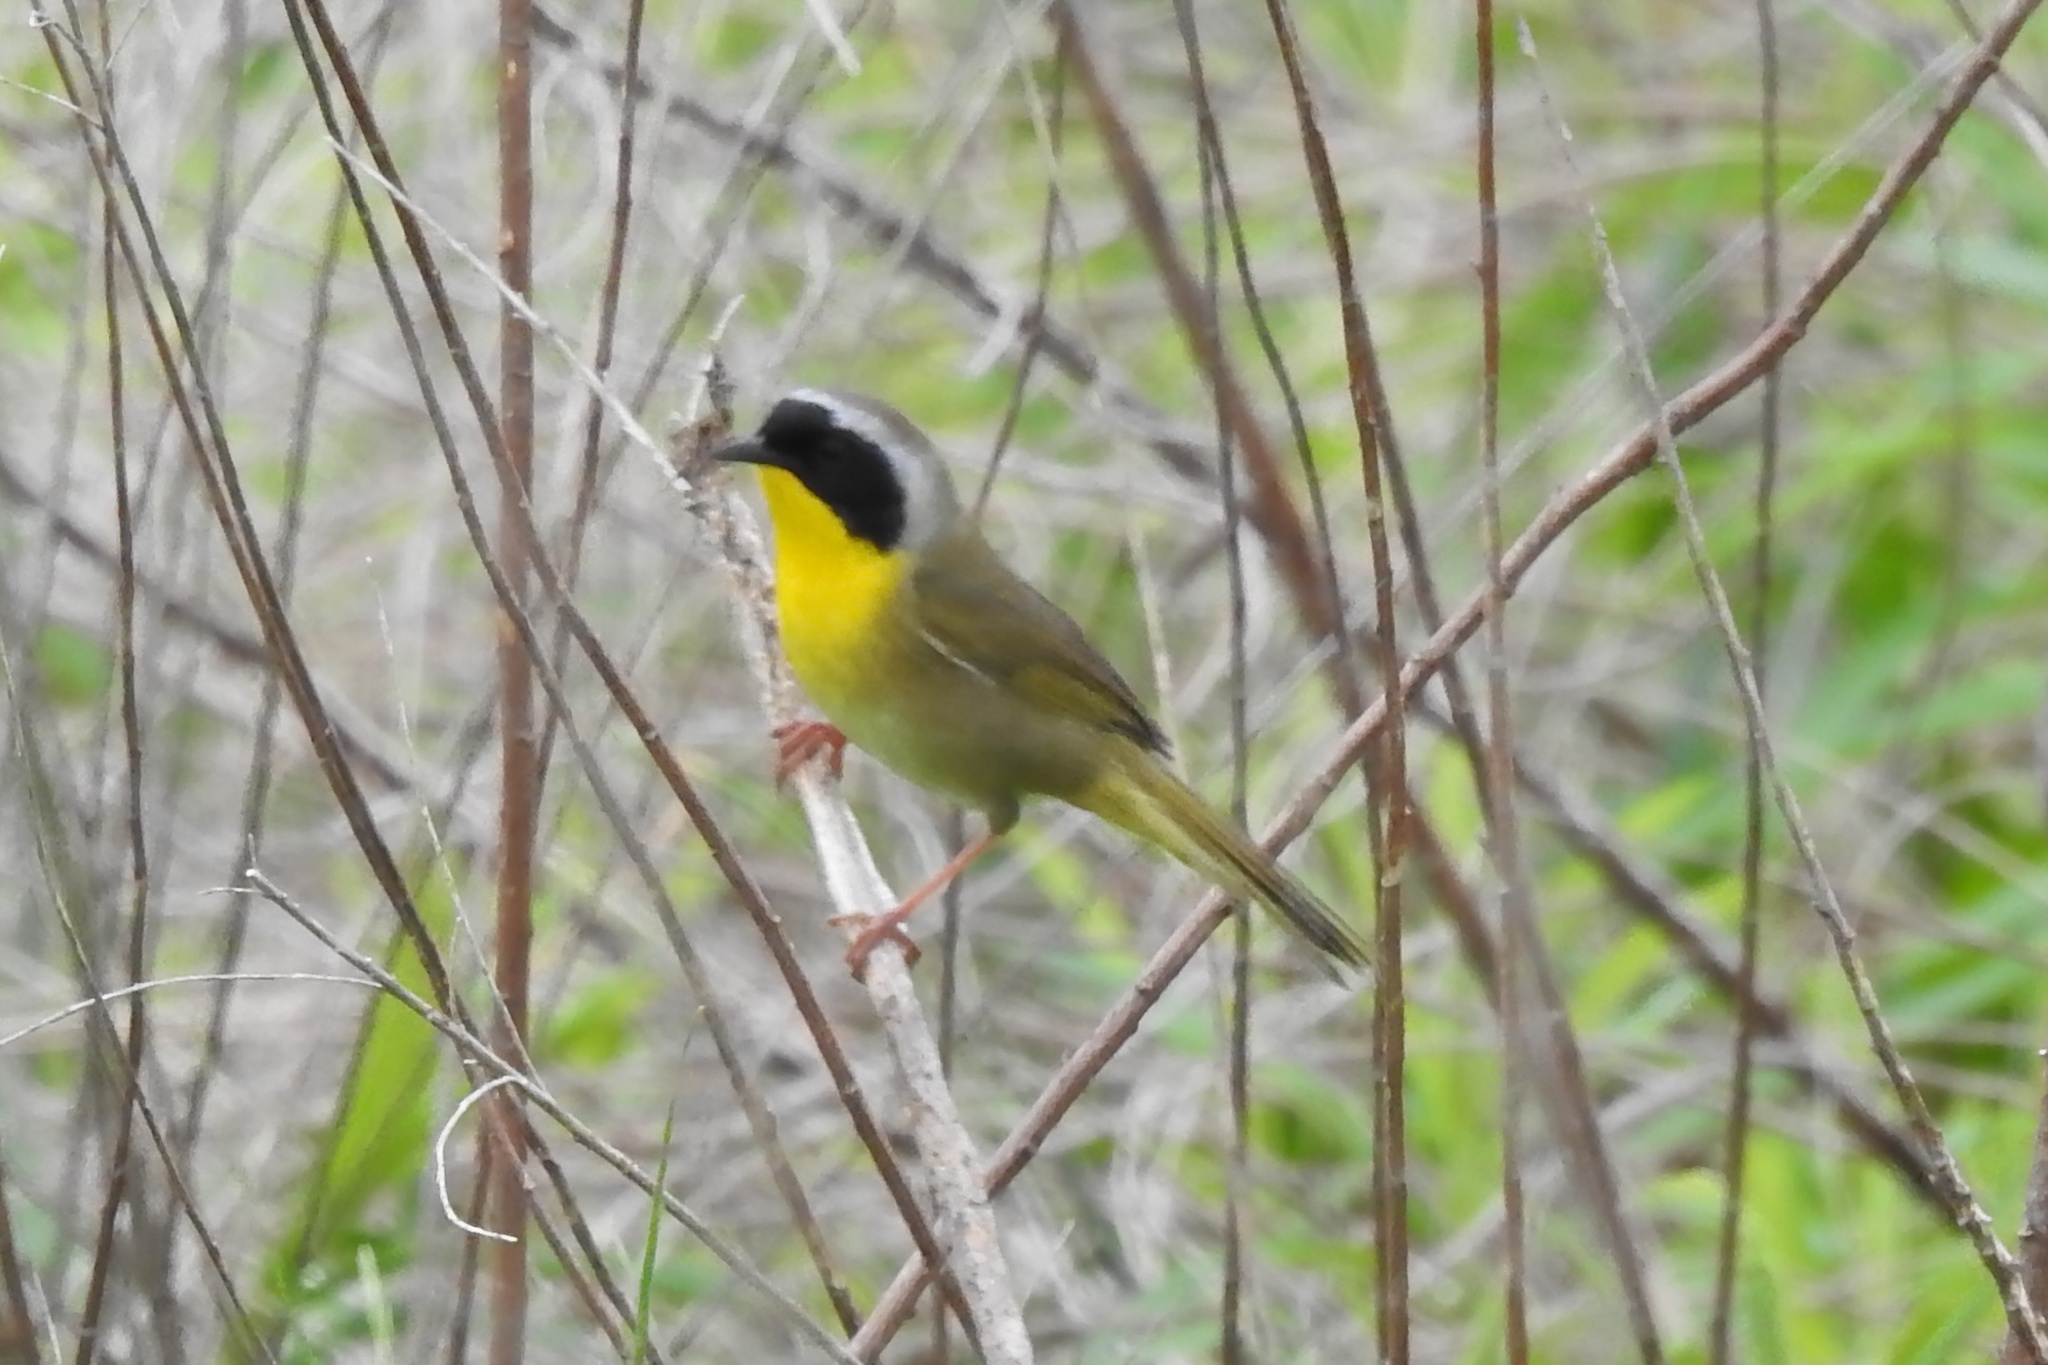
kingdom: Animalia
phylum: Chordata
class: Aves
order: Passeriformes
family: Parulidae
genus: Geothlypis
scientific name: Geothlypis trichas
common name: Common yellowthroat
